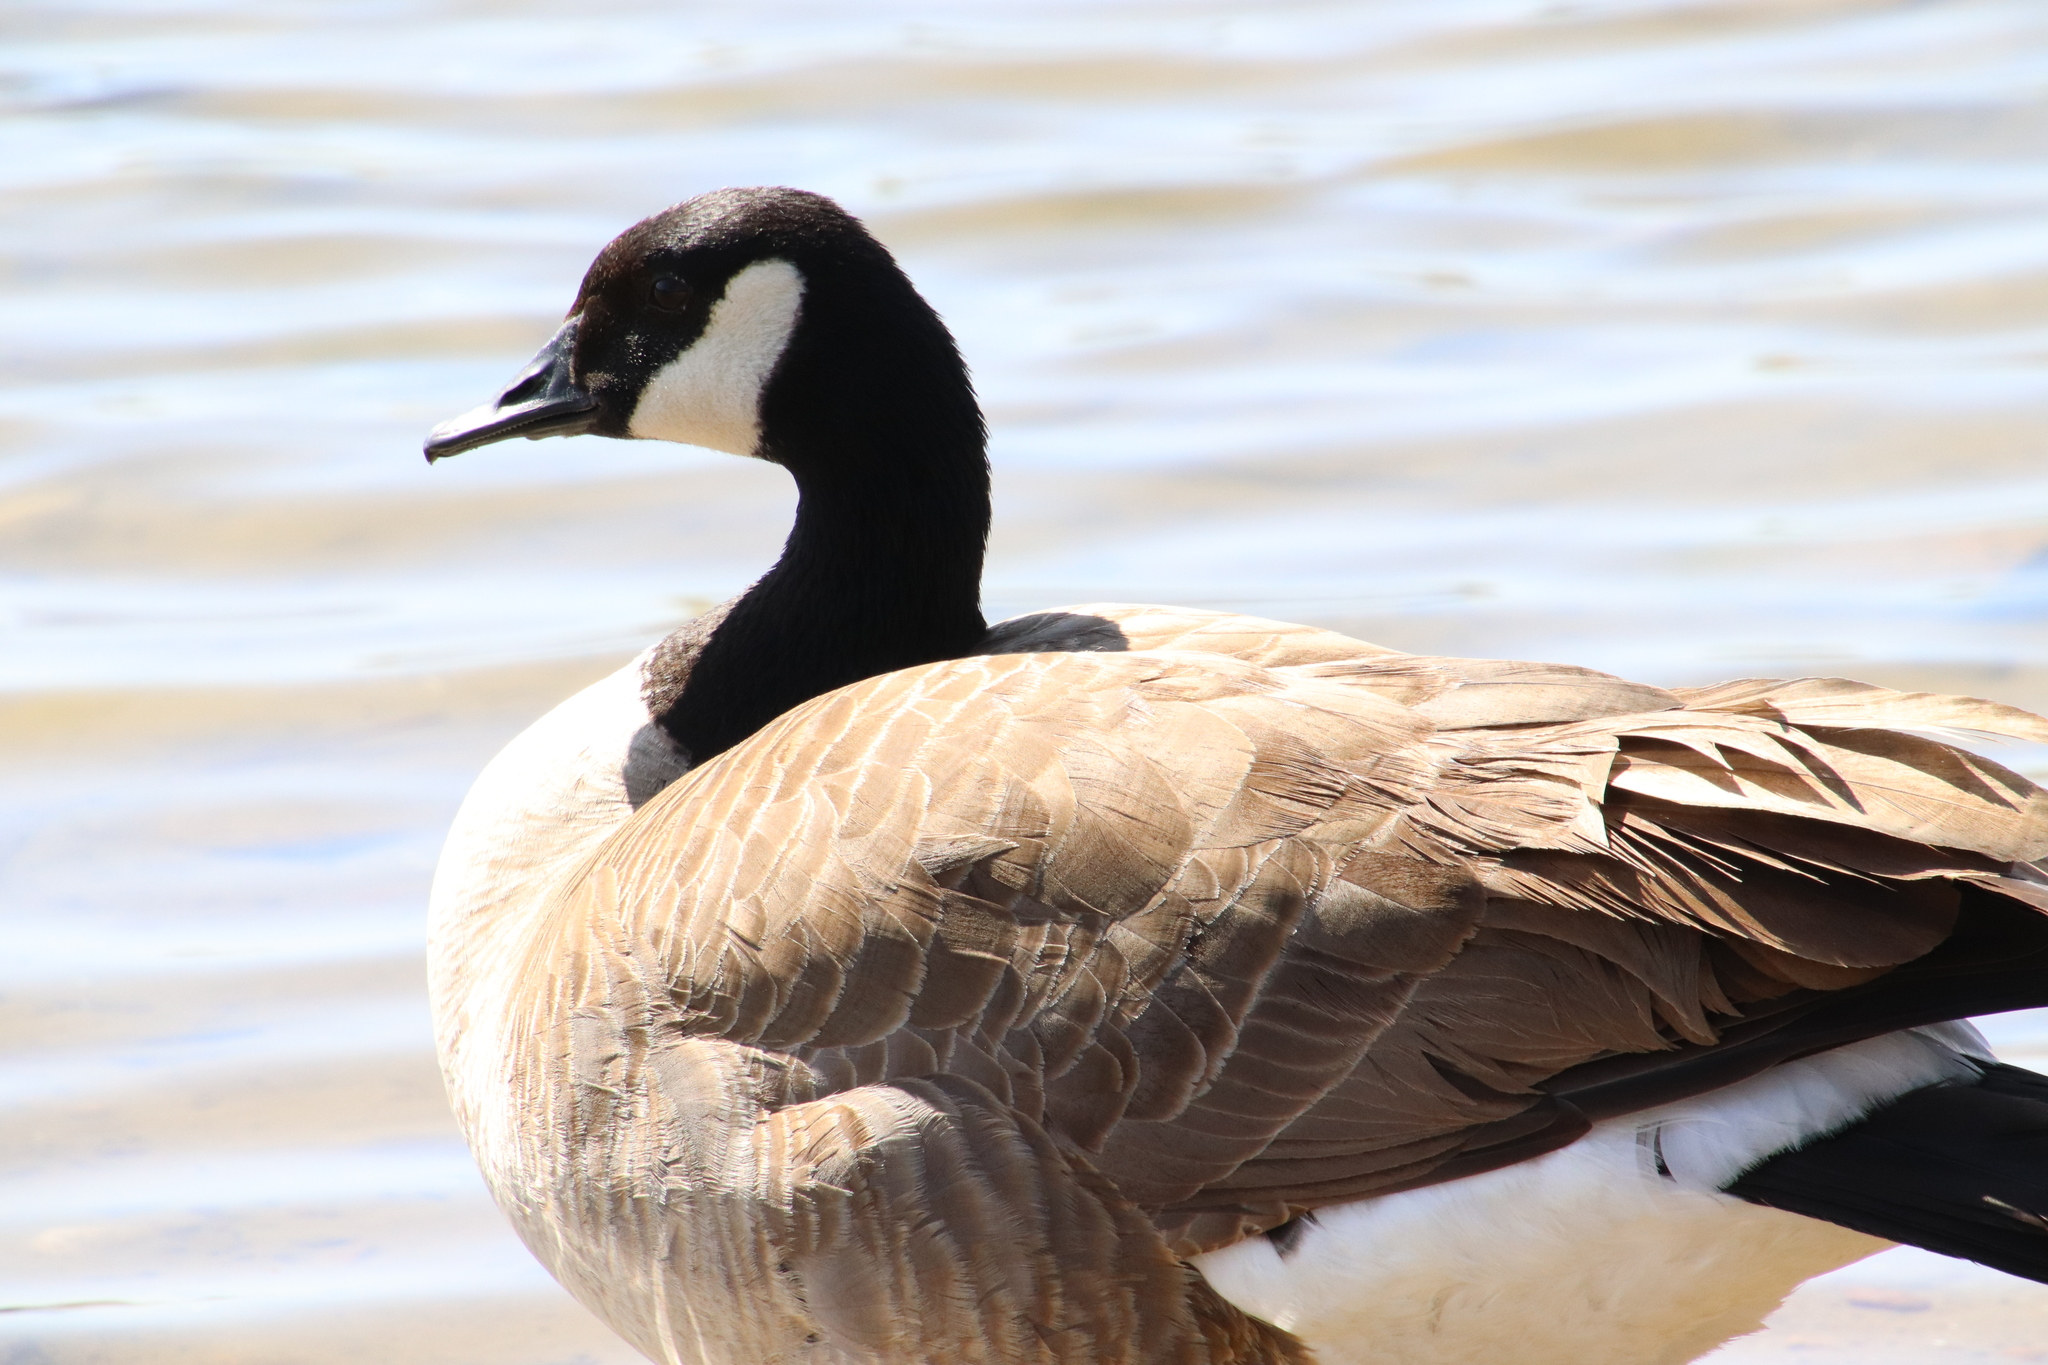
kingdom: Animalia
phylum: Chordata
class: Aves
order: Anseriformes
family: Anatidae
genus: Branta
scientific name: Branta canadensis
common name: Canada goose
